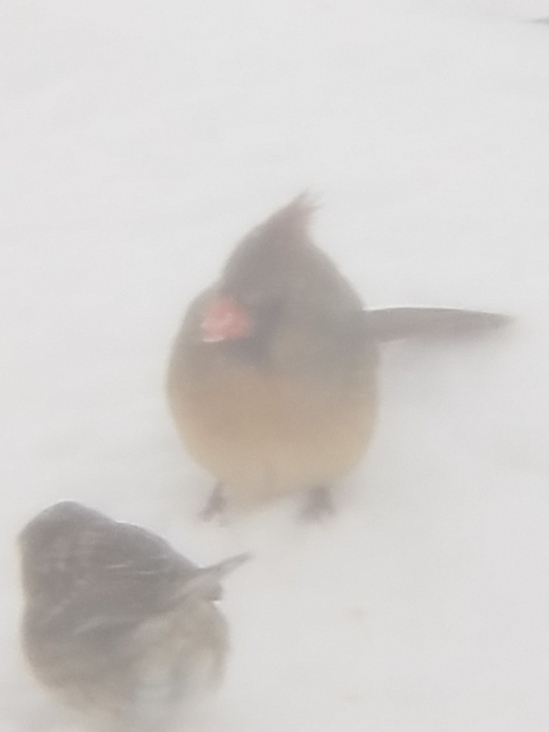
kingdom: Animalia
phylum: Chordata
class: Aves
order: Passeriformes
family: Cardinalidae
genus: Cardinalis
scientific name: Cardinalis cardinalis
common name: Northern cardinal
